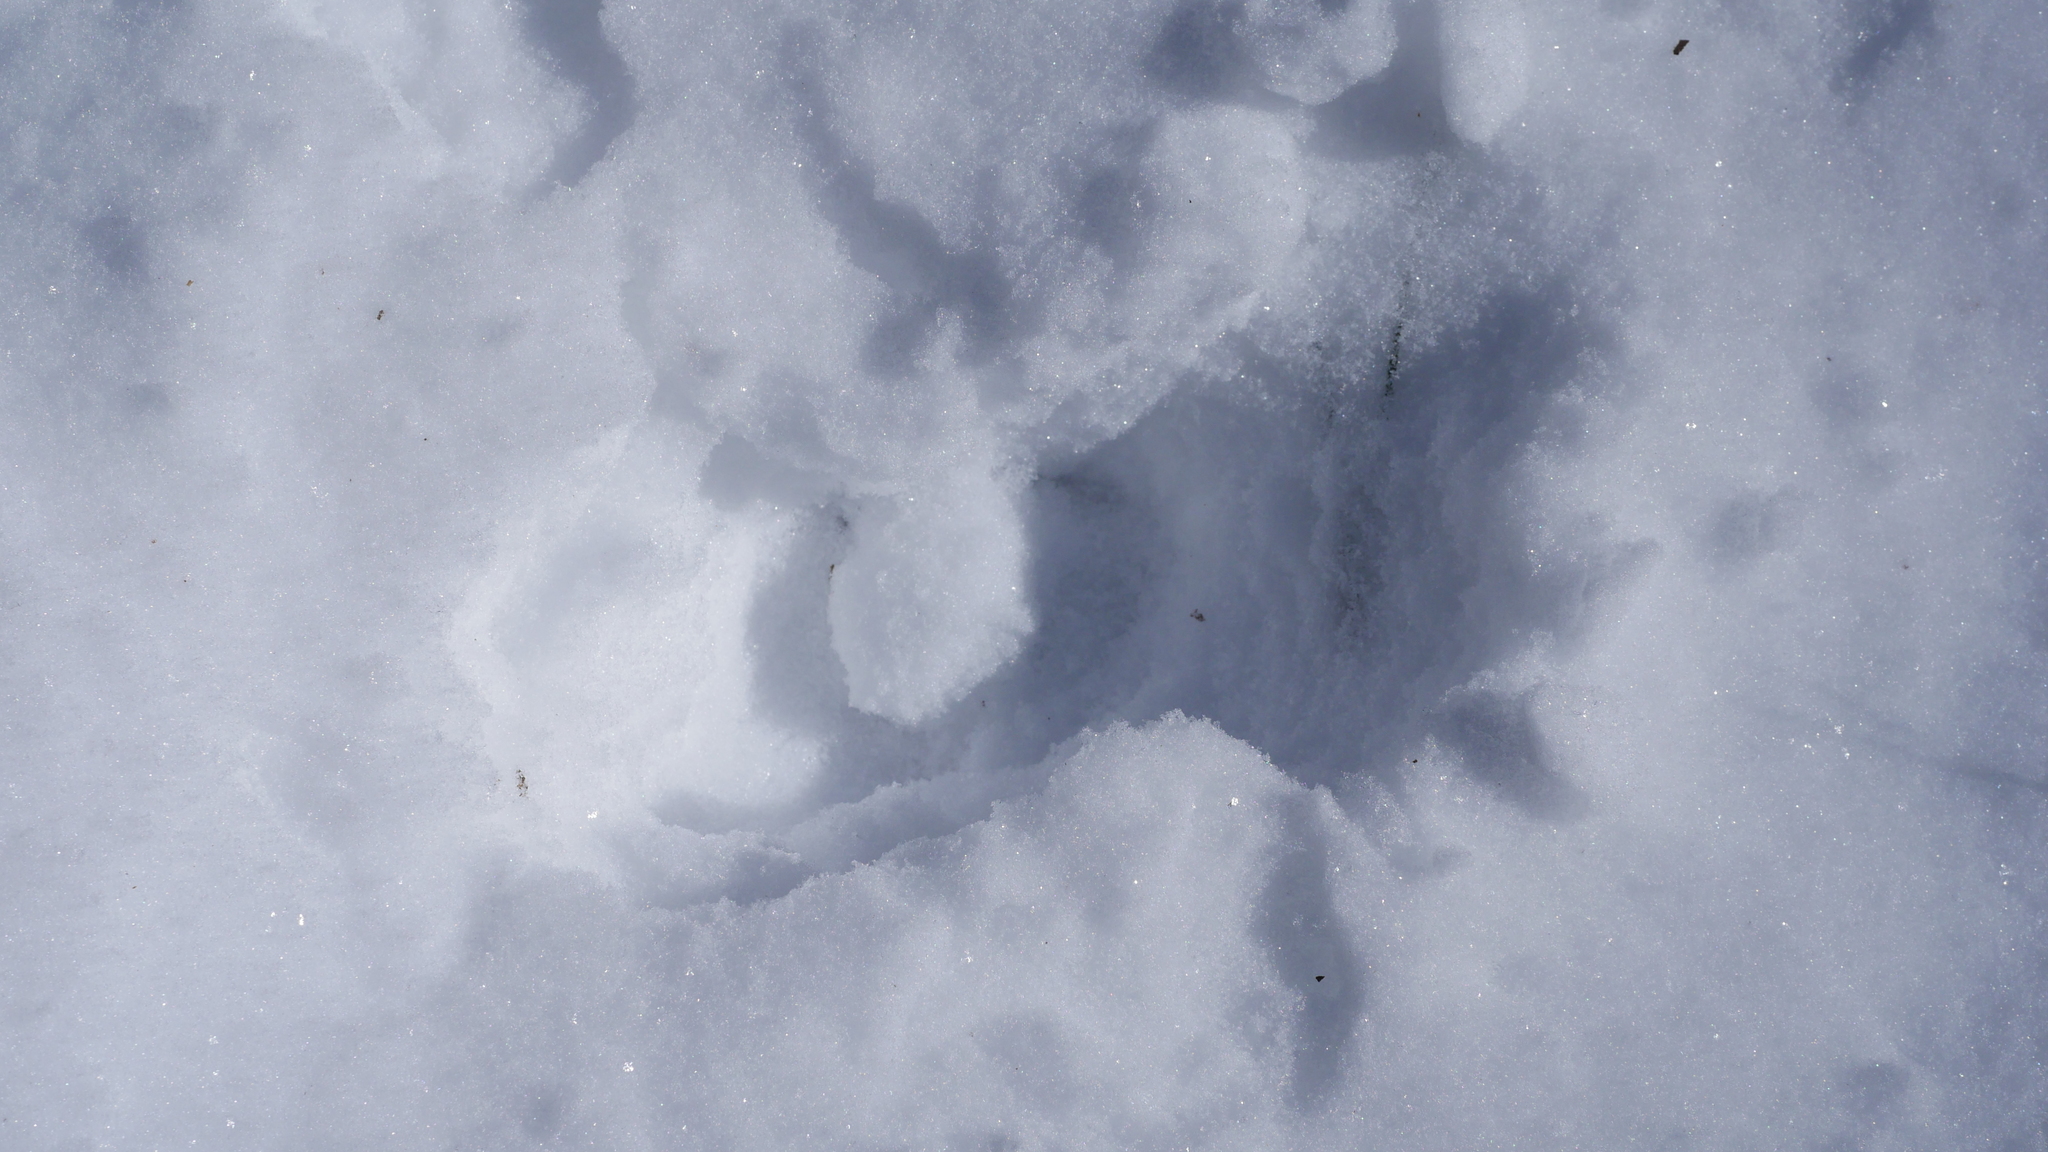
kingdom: Animalia
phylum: Chordata
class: Mammalia
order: Artiodactyla
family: Cervidae
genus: Odocoileus
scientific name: Odocoileus virginianus
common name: White-tailed deer
